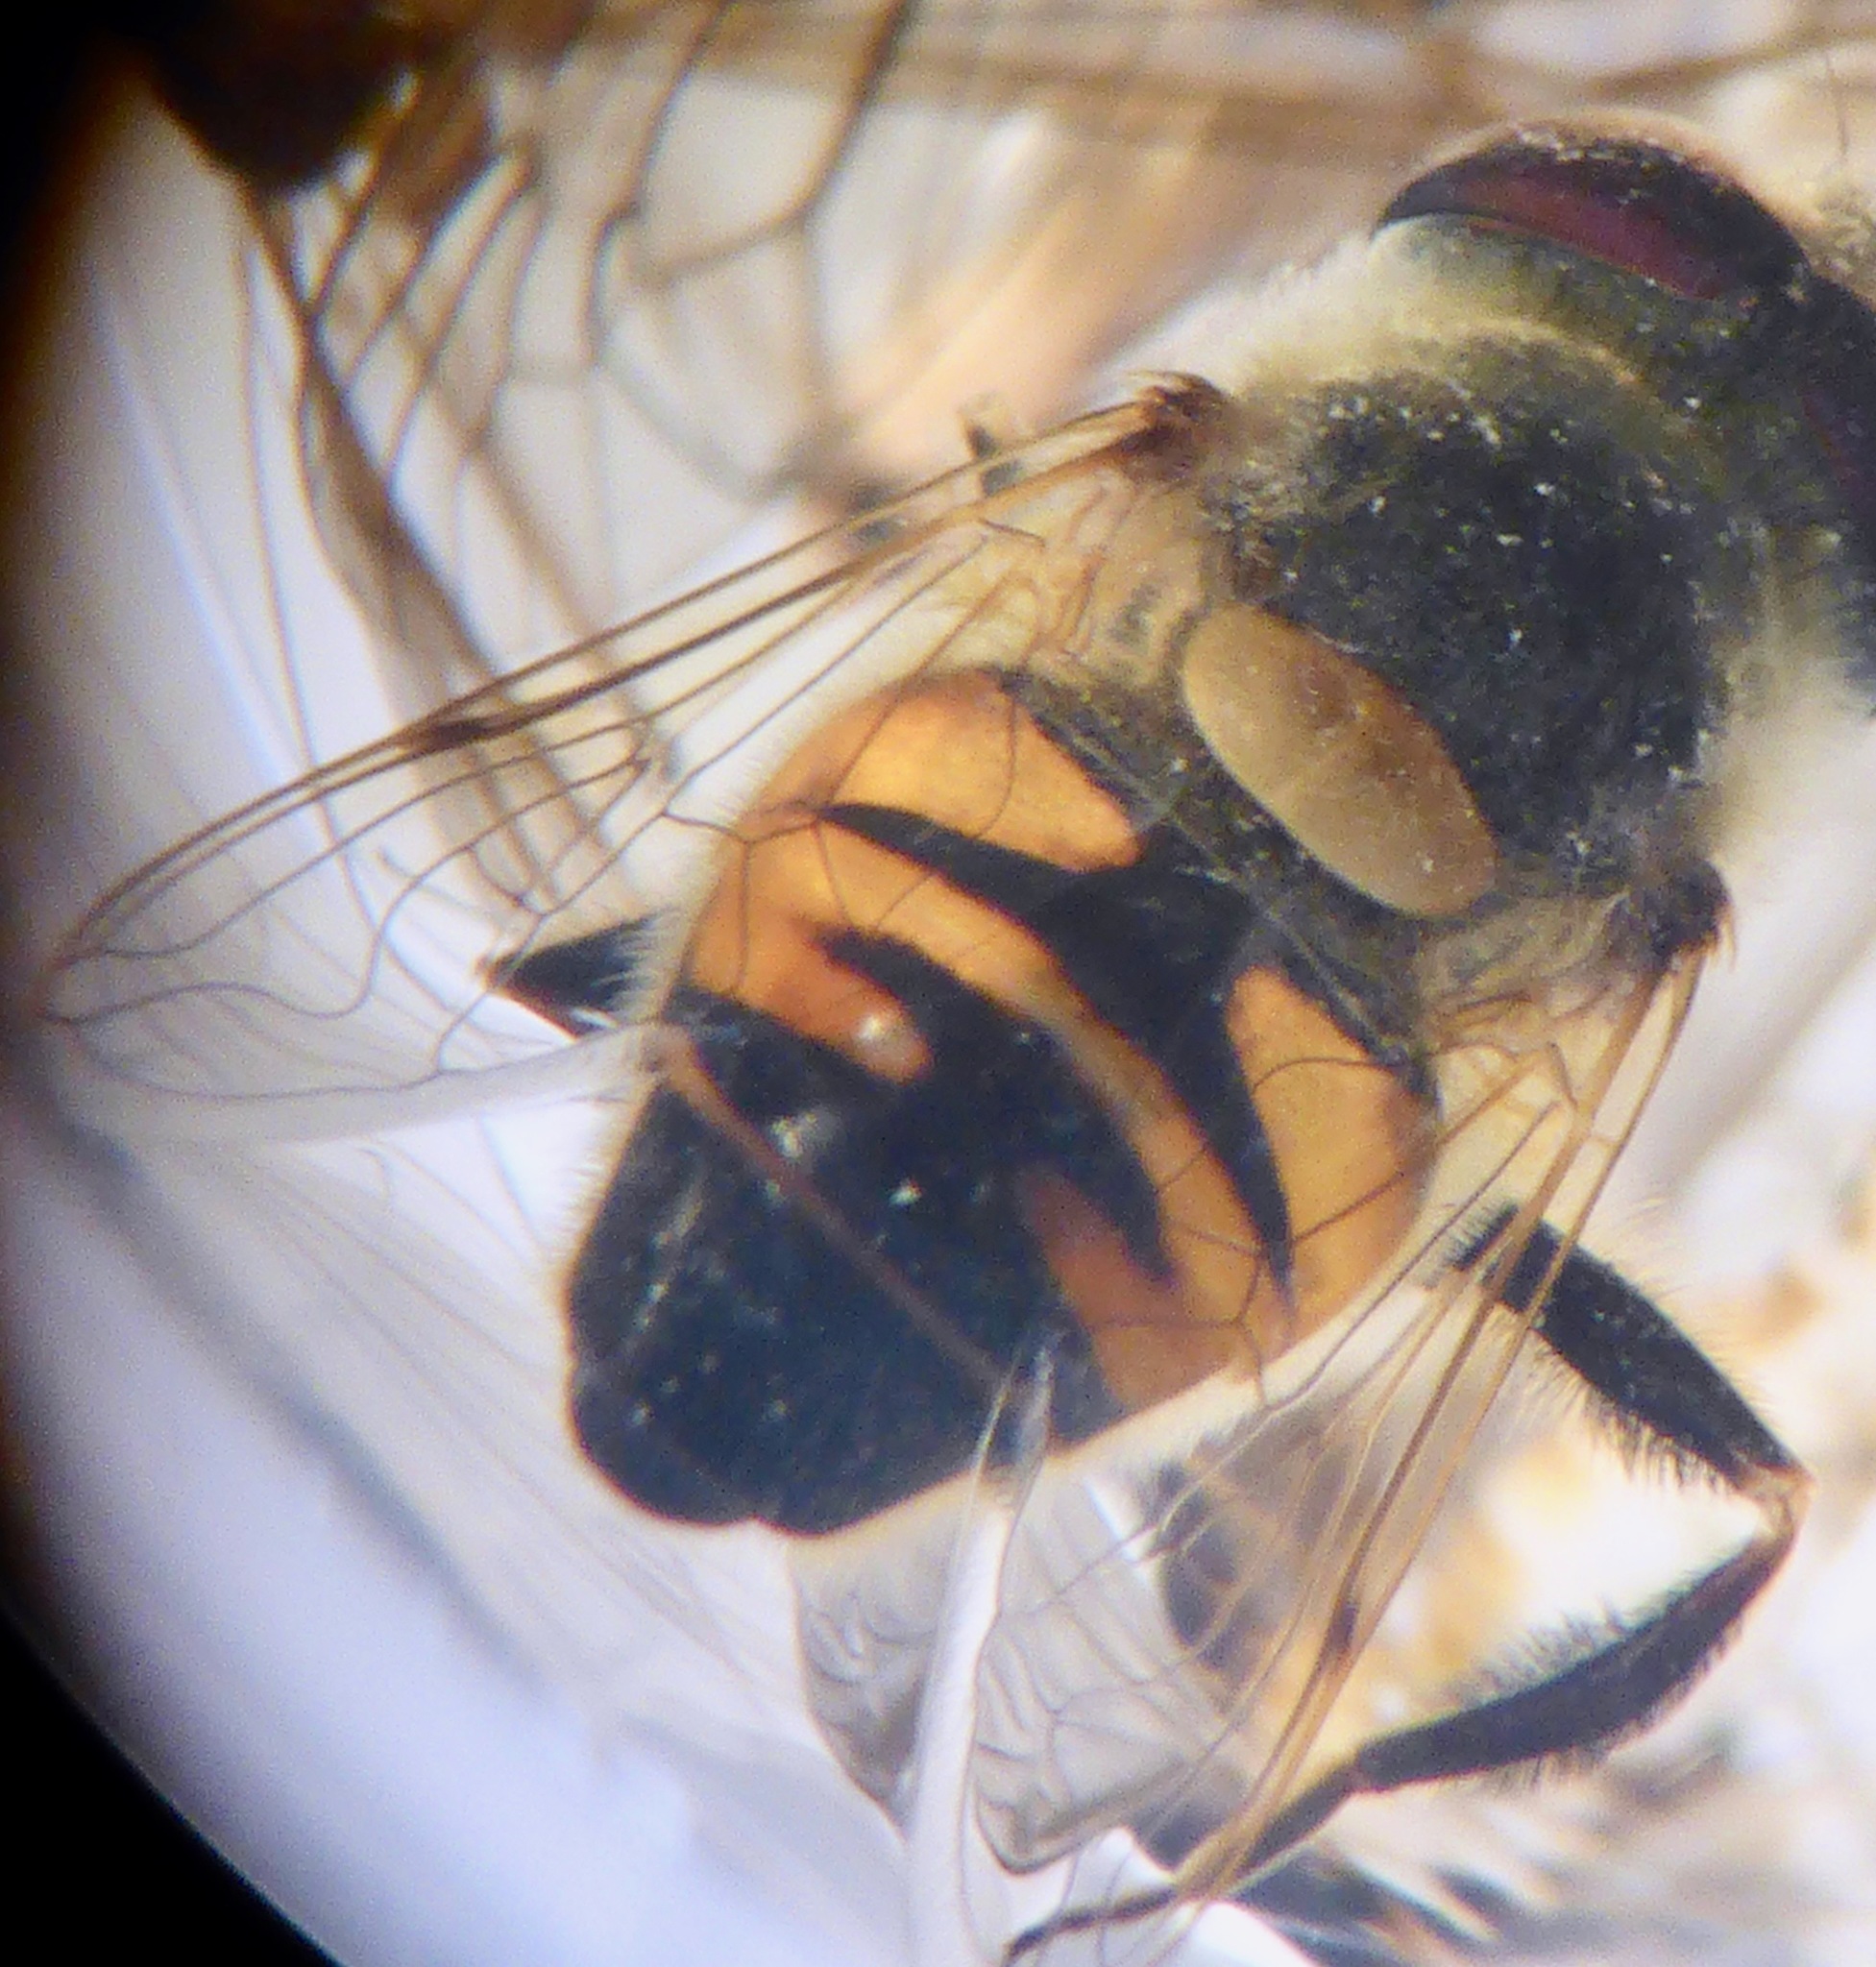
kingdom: Animalia
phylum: Arthropoda
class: Insecta
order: Diptera
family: Syrphidae
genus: Eristalis
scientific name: Eristalis tenax
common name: Drone fly
